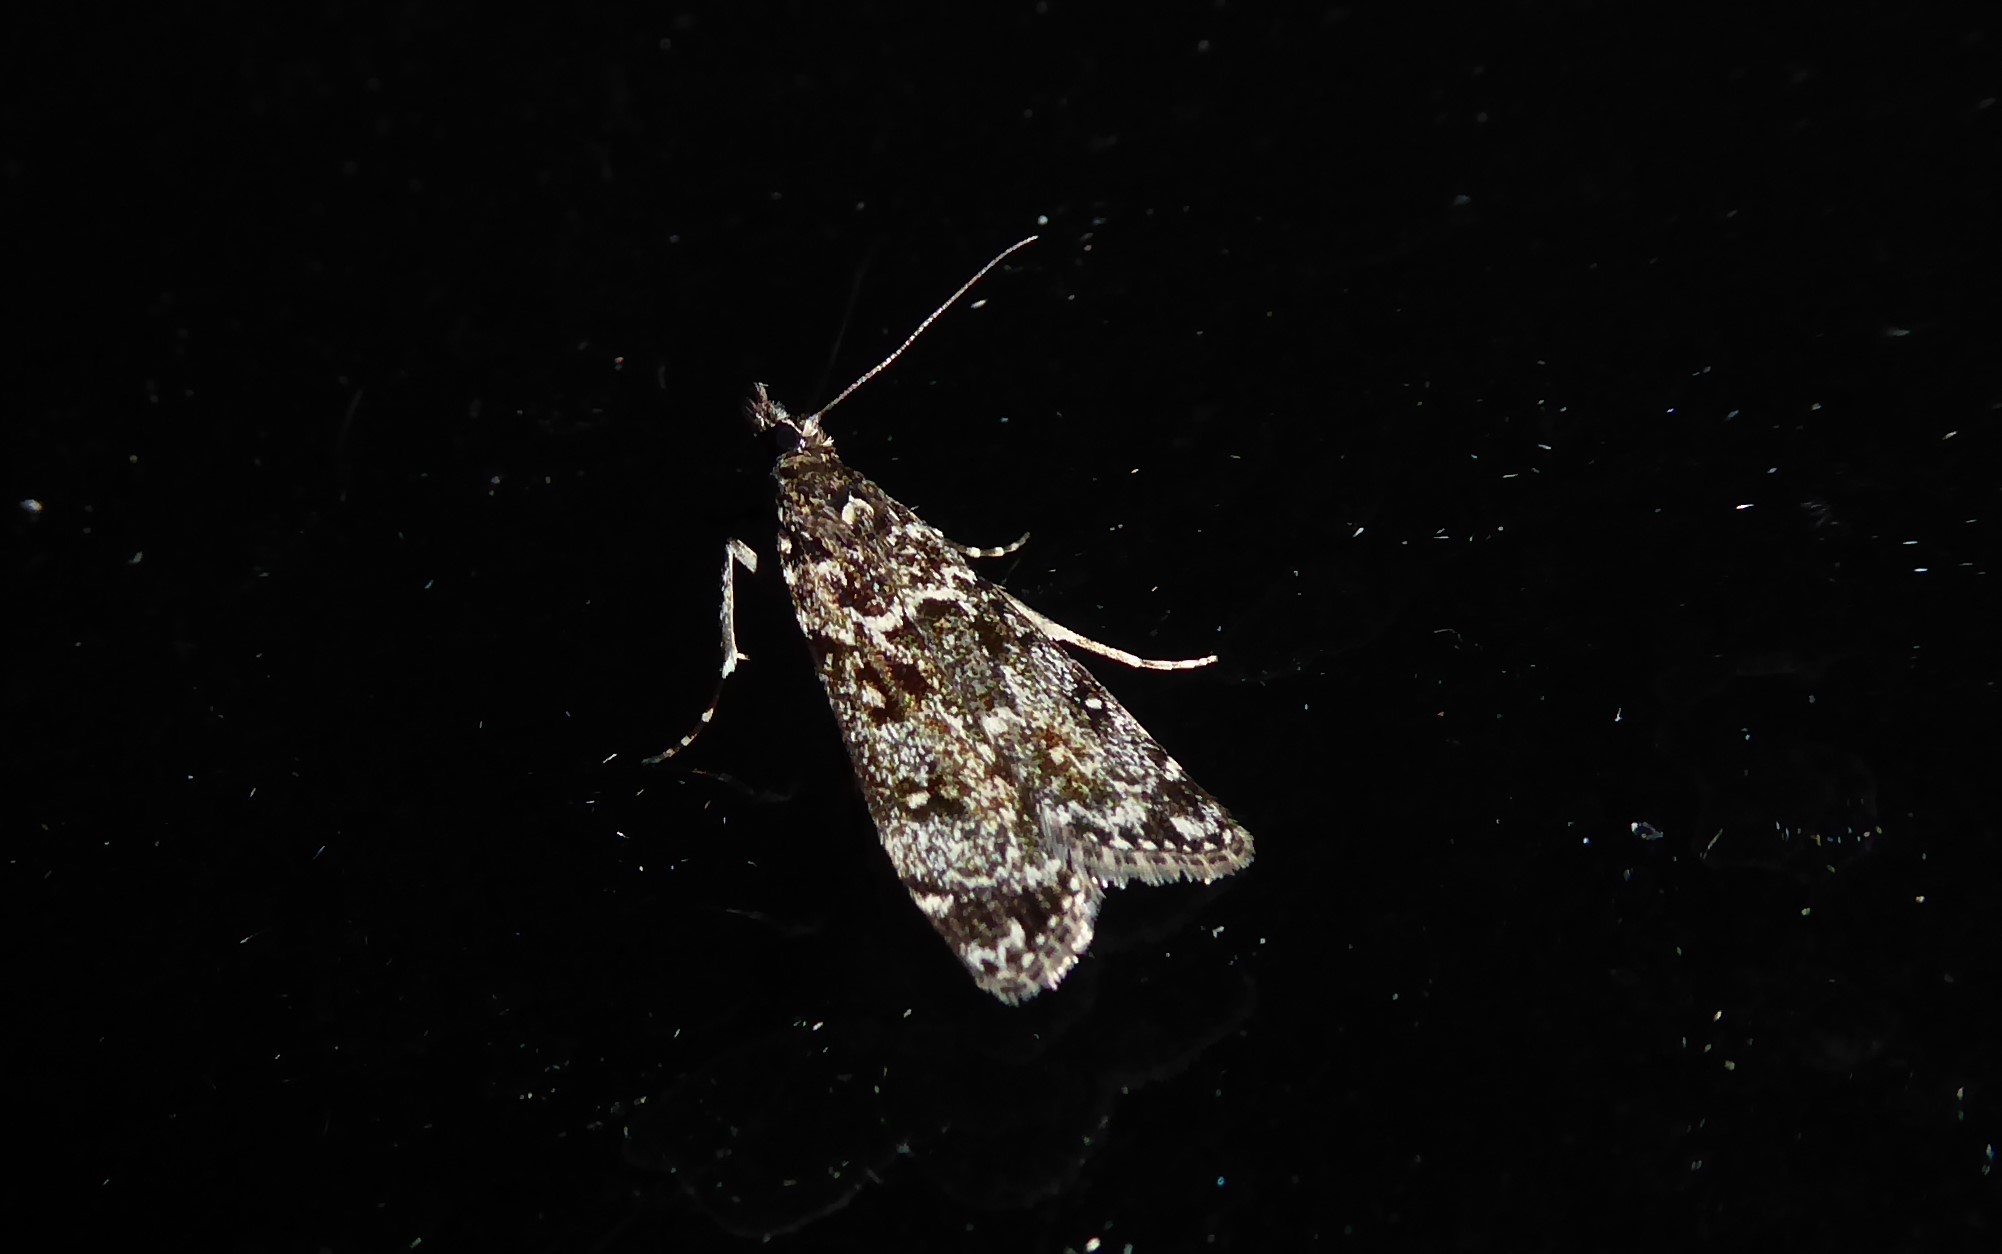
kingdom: Animalia
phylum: Arthropoda
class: Insecta
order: Lepidoptera
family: Crambidae
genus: Eudonia
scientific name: Eudonia philerga
